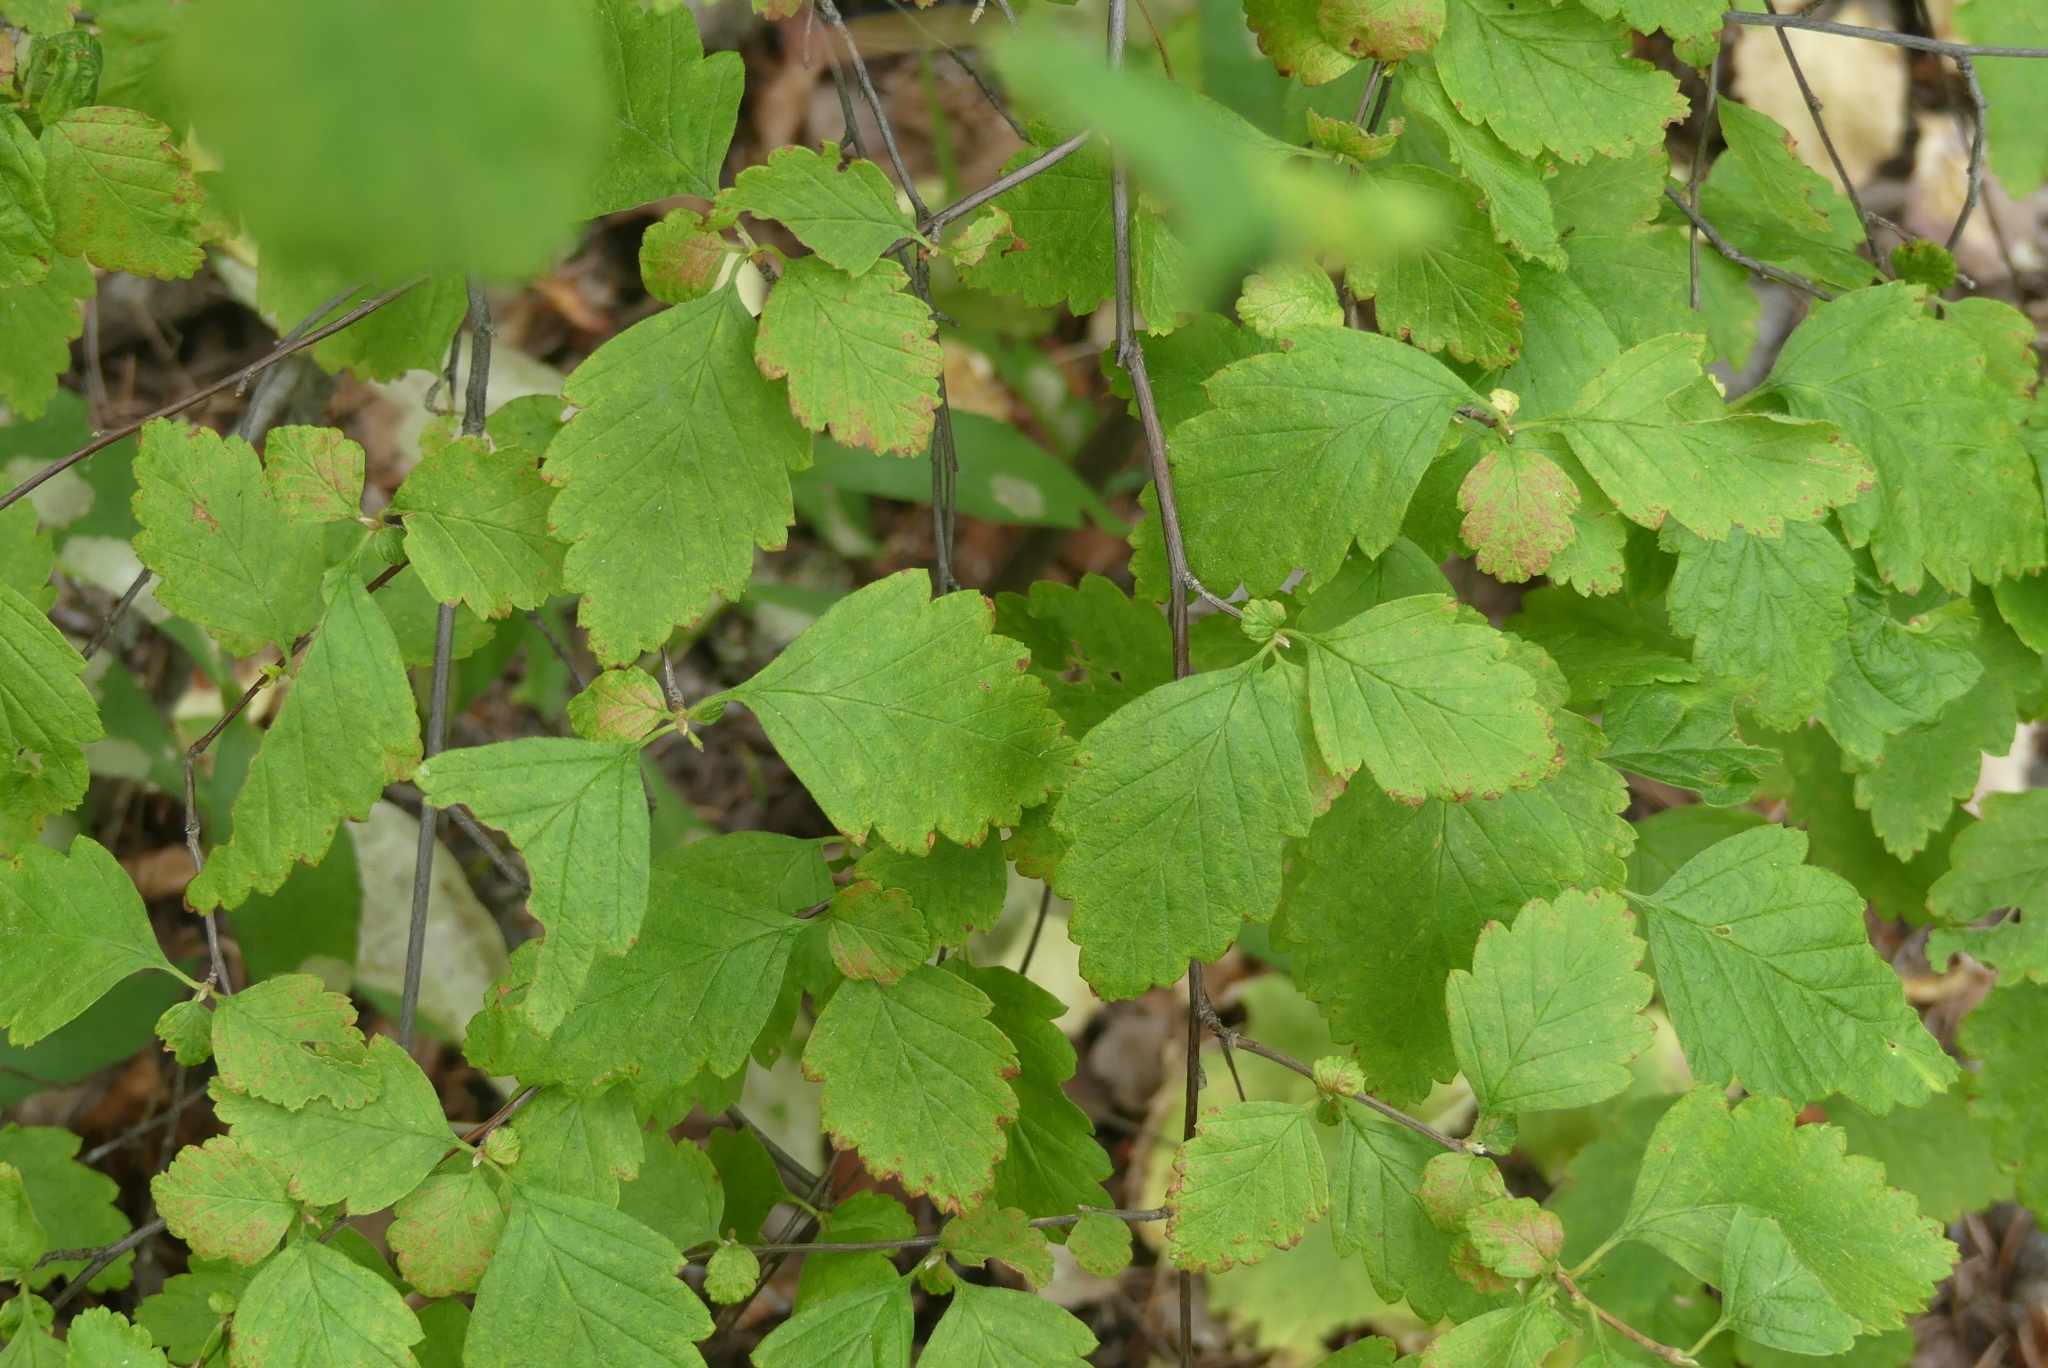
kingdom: Plantae
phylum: Tracheophyta
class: Magnoliopsida
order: Rosales
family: Rosaceae
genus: Holodiscus
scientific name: Holodiscus discolor
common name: Oceanspray
